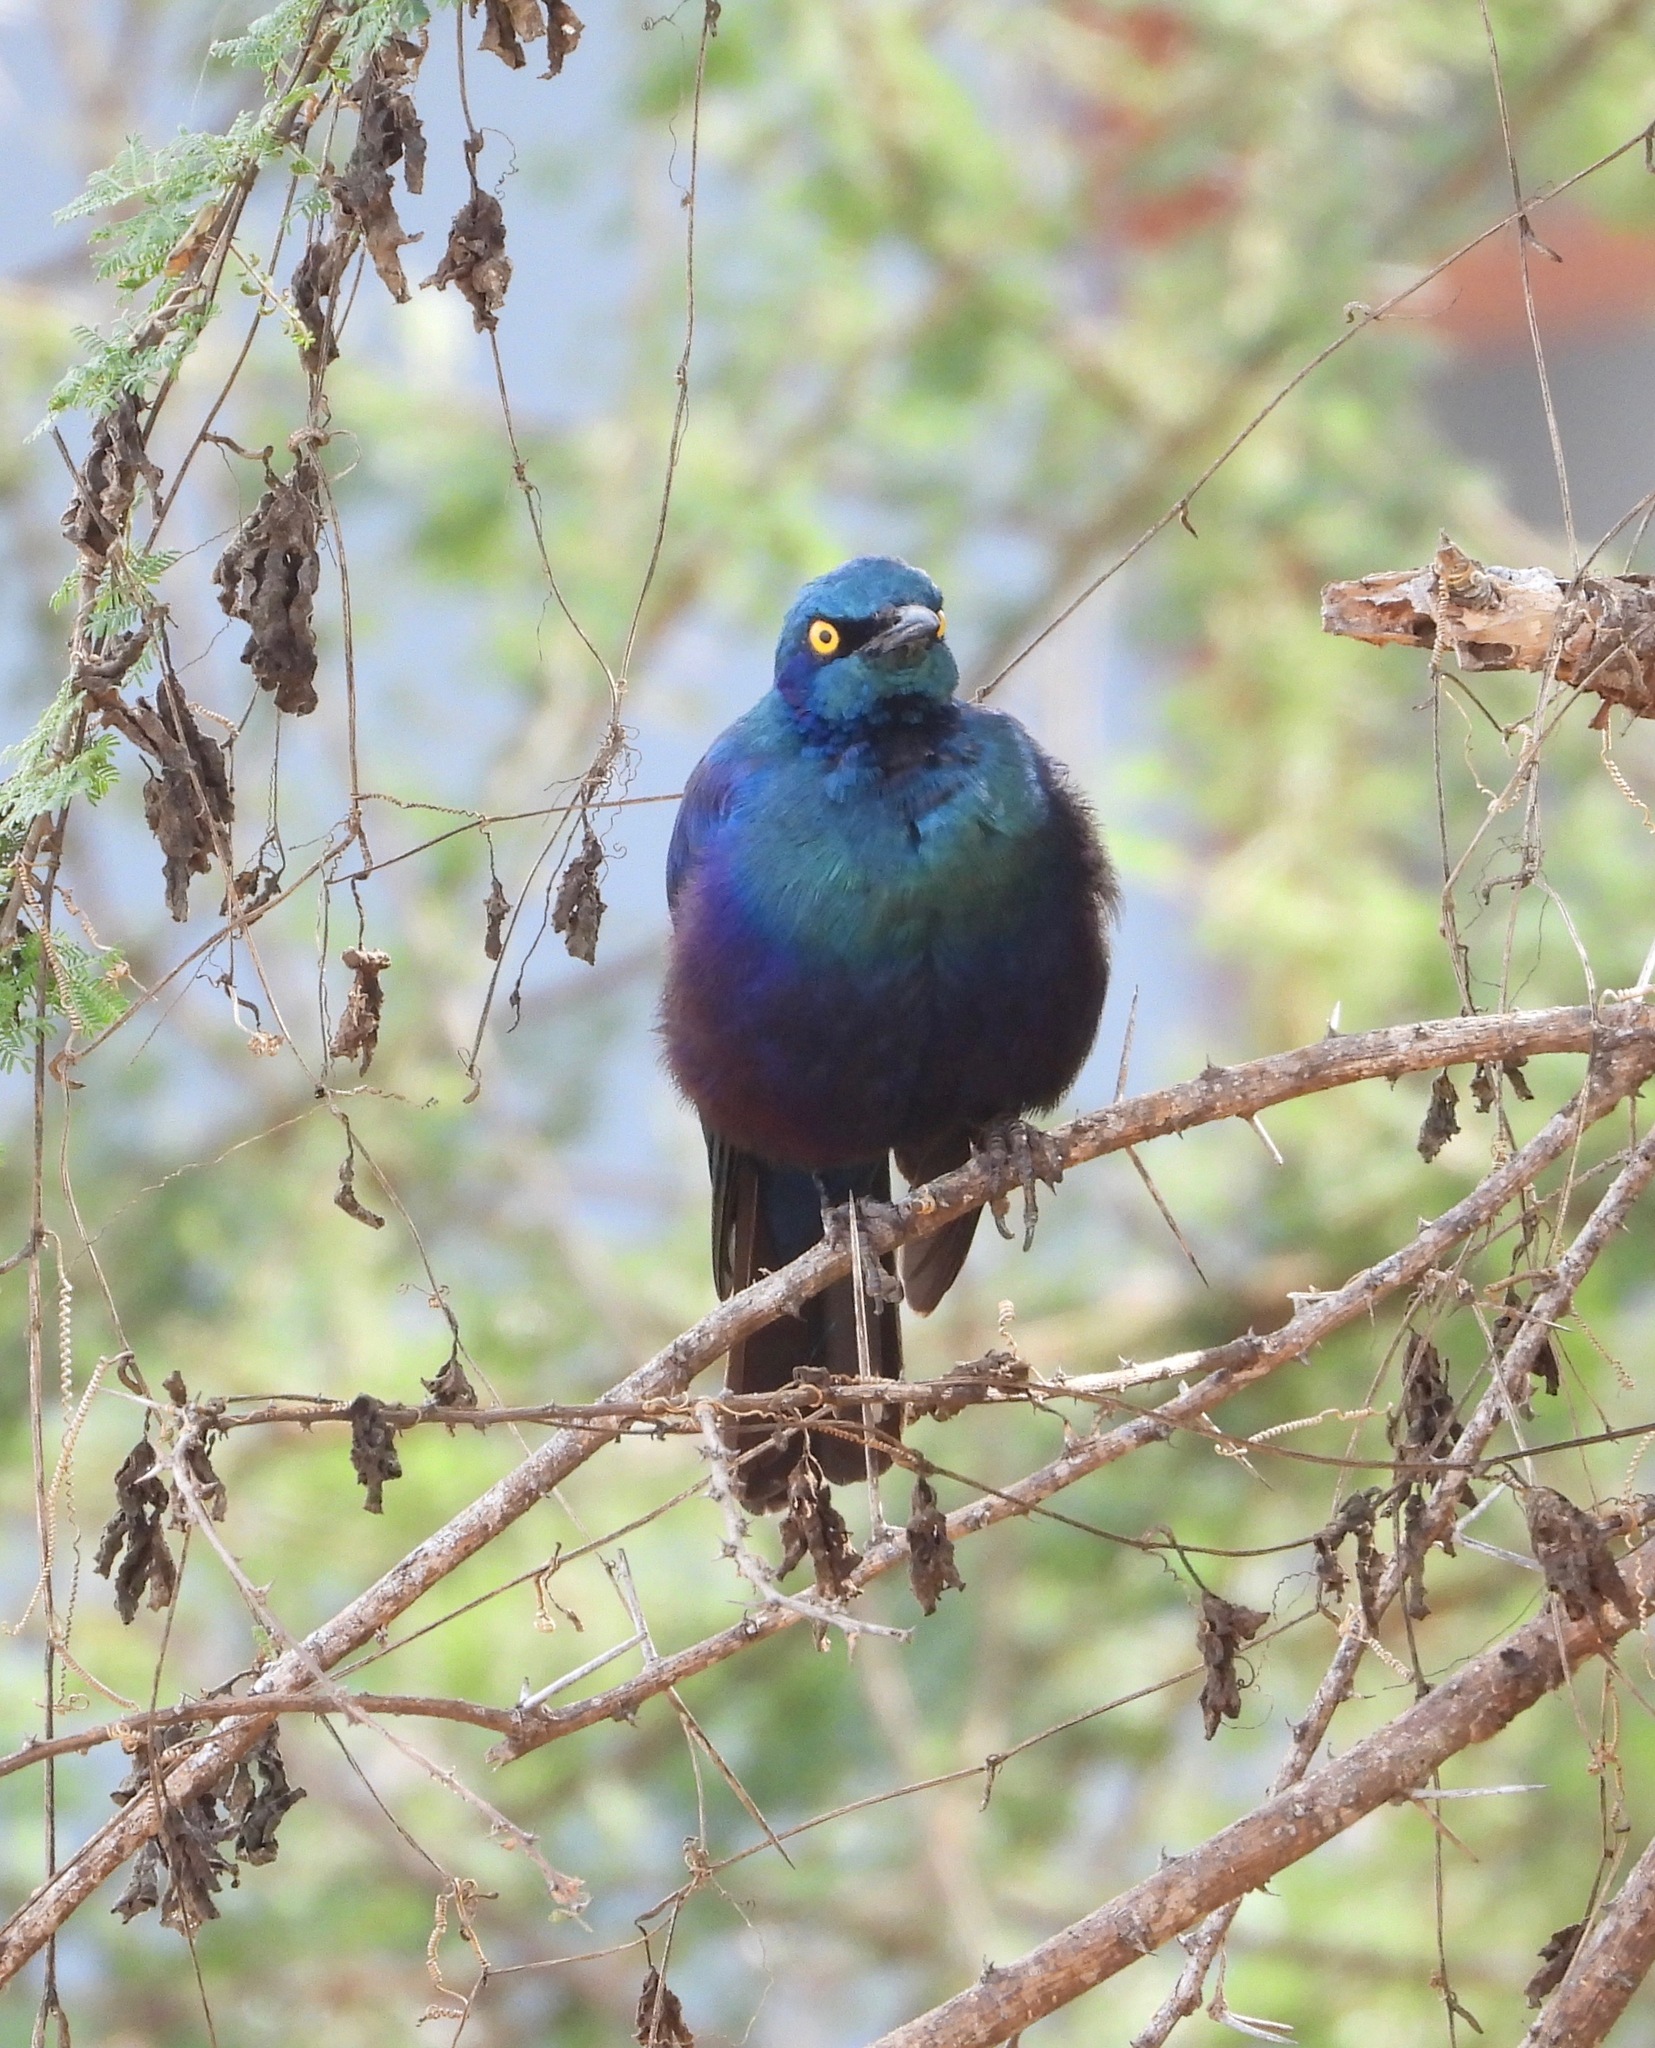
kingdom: Animalia
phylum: Chordata
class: Aves
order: Passeriformes
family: Sturnidae
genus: Lamprotornis
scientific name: Lamprotornis chalybaeus
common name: Greater blue-eared starling
